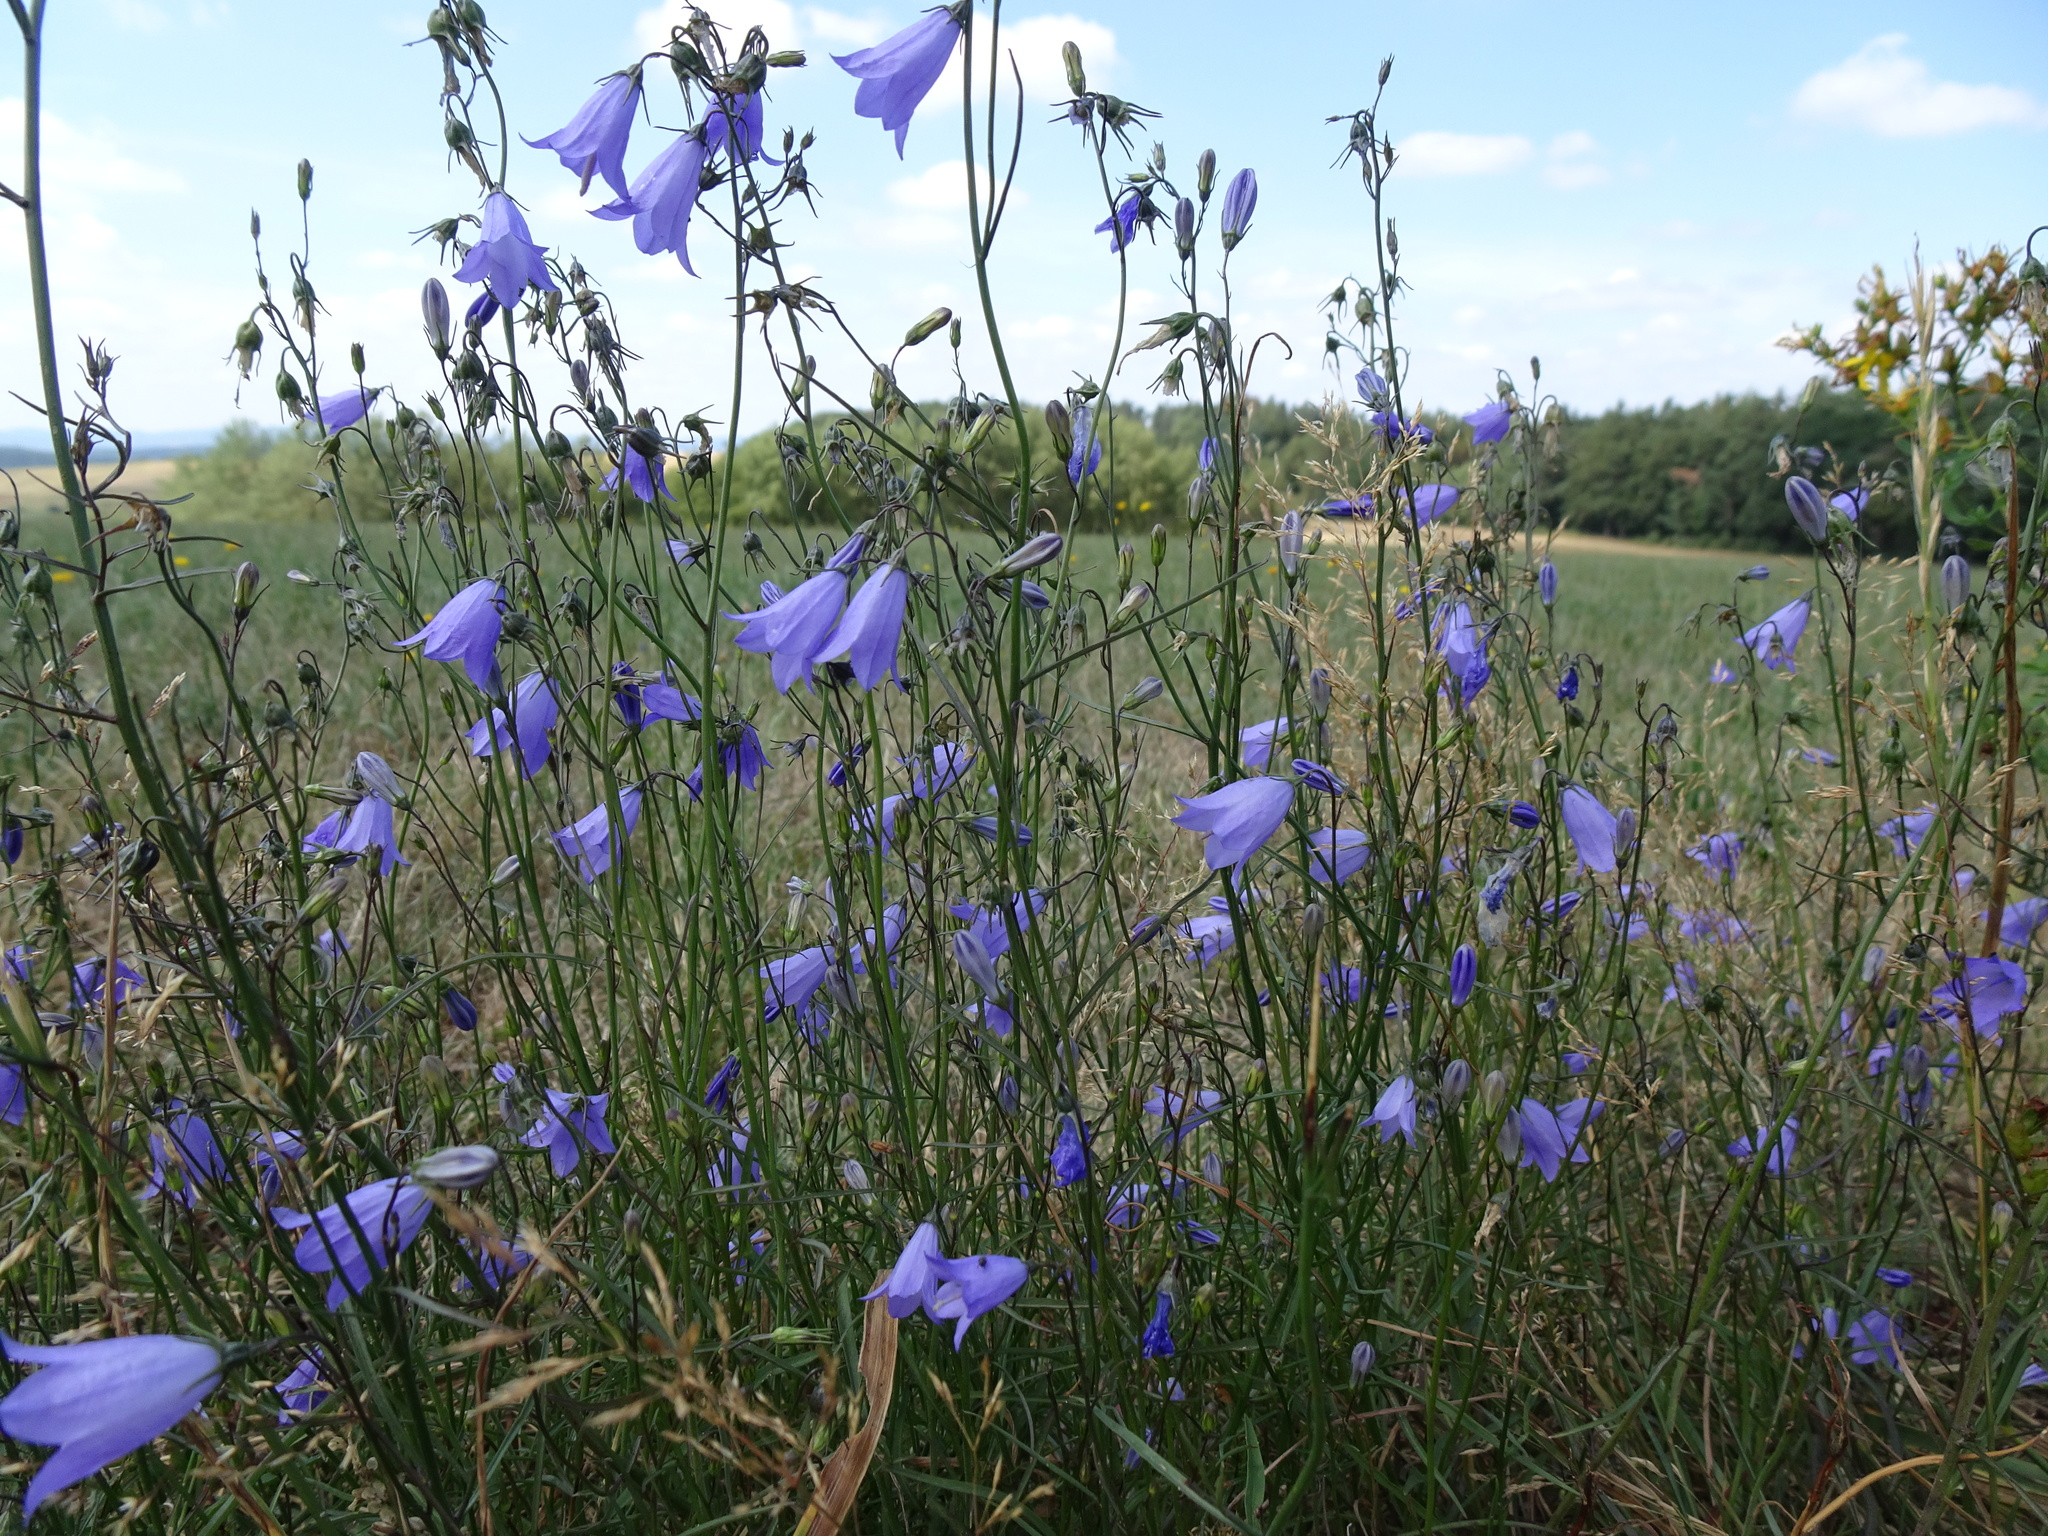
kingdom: Plantae
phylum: Tracheophyta
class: Magnoliopsida
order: Asterales
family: Campanulaceae
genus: Campanula
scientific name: Campanula rotundifolia
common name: Harebell
